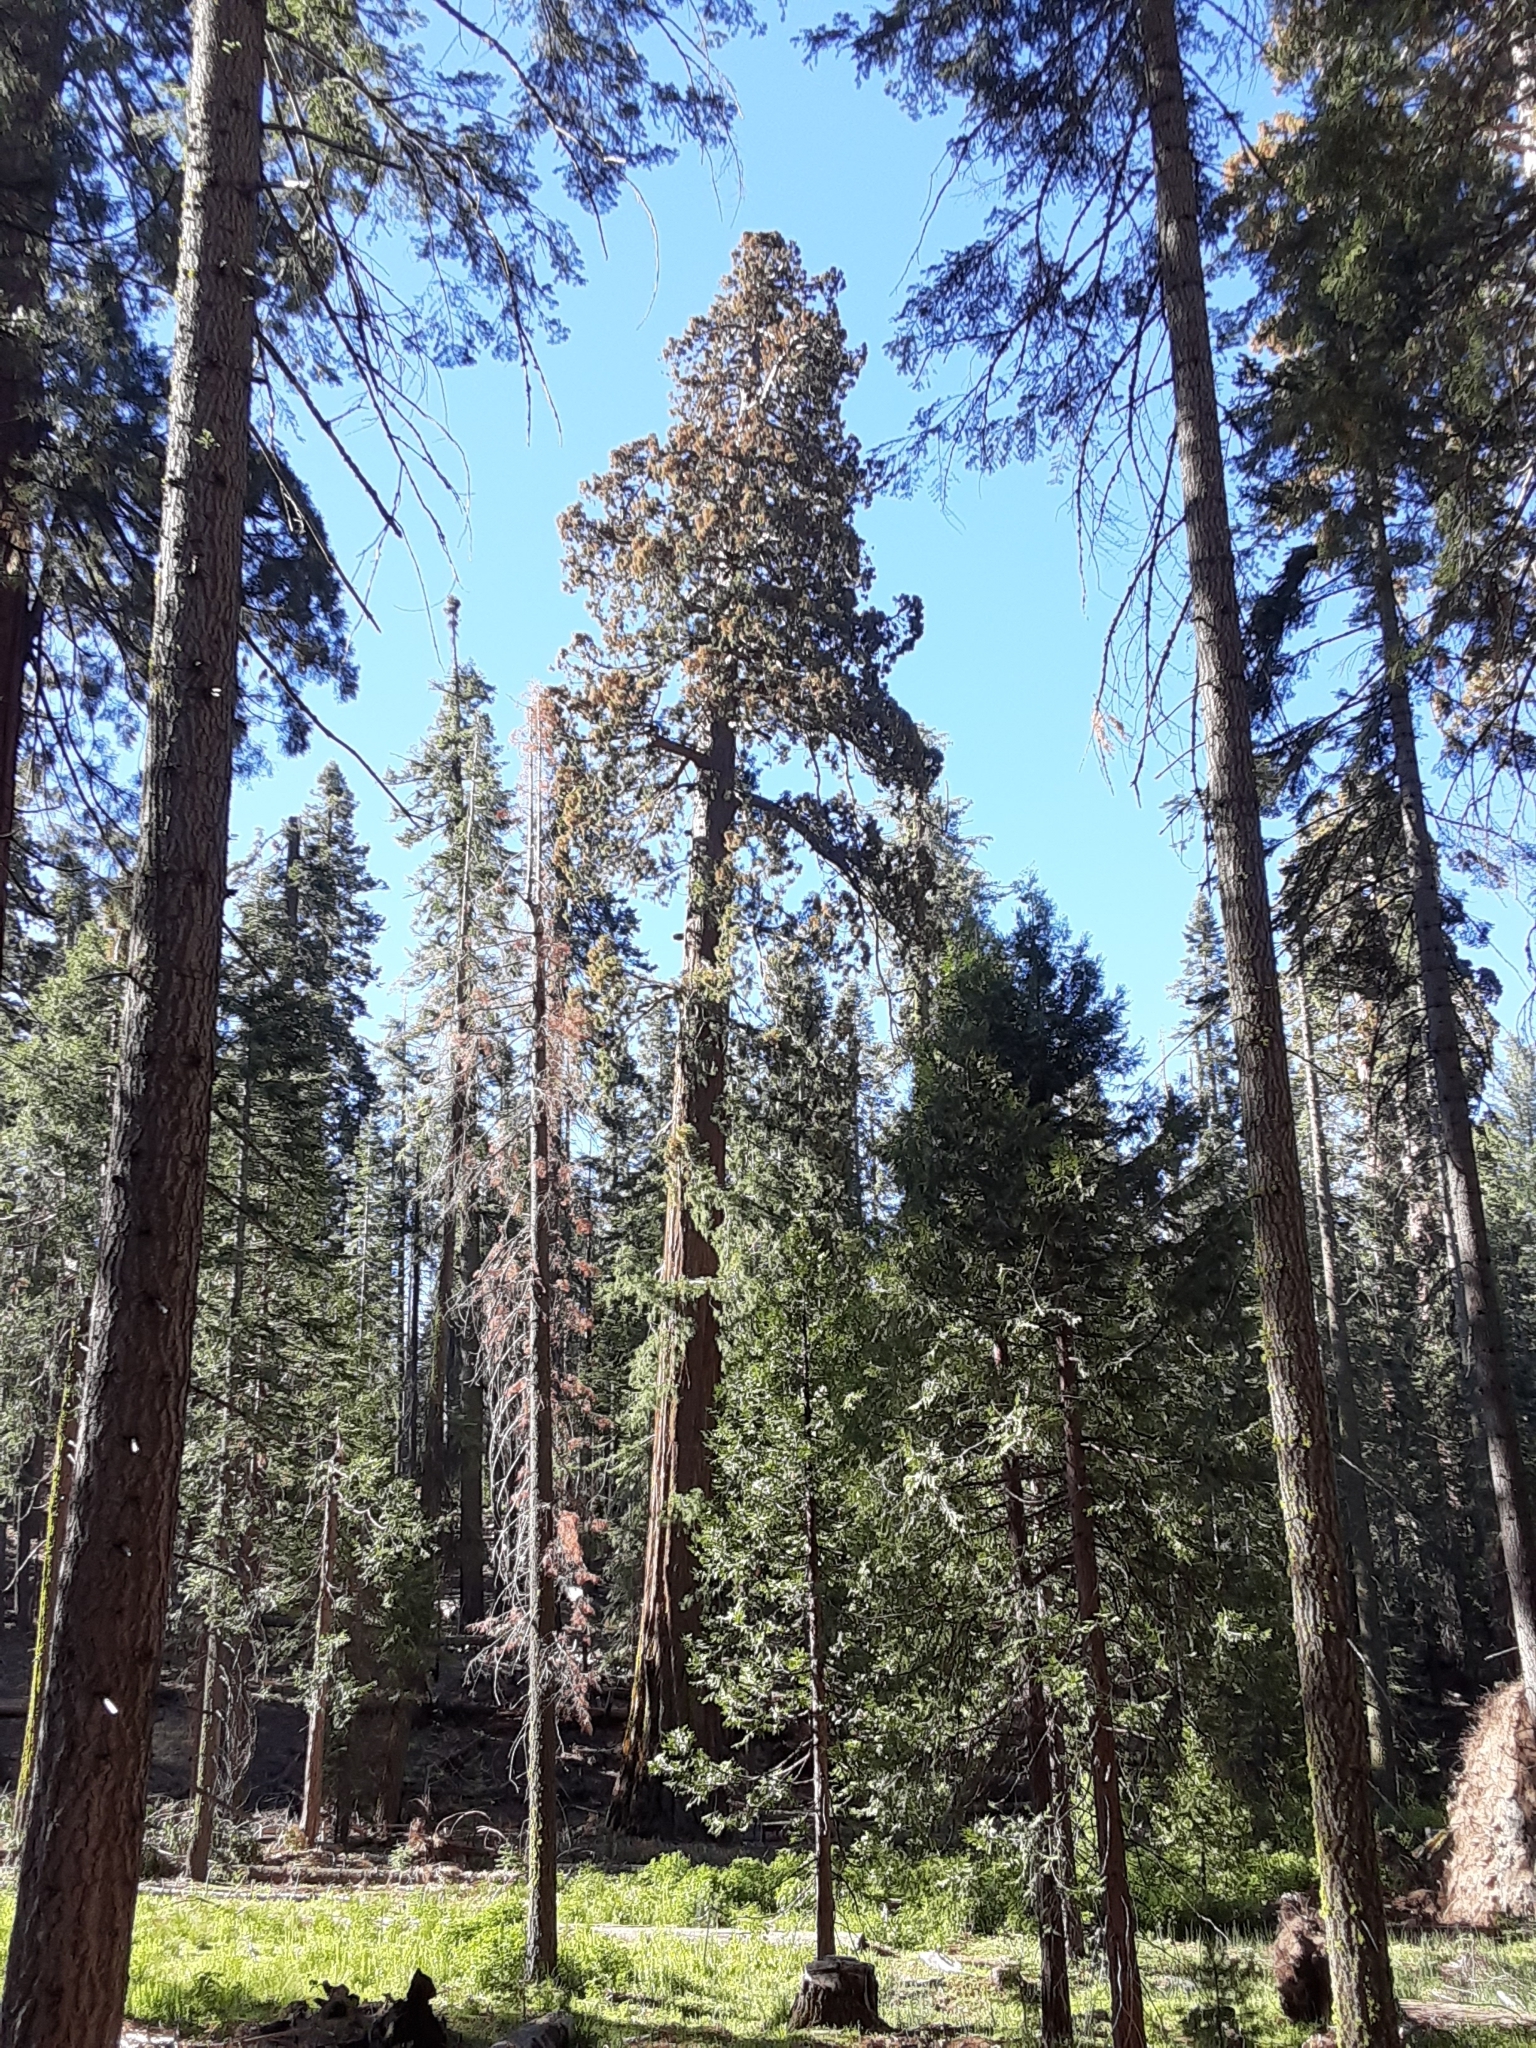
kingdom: Plantae
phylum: Tracheophyta
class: Pinopsida
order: Pinales
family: Cupressaceae
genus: Sequoiadendron
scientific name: Sequoiadendron giganteum
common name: Wellingtonia
